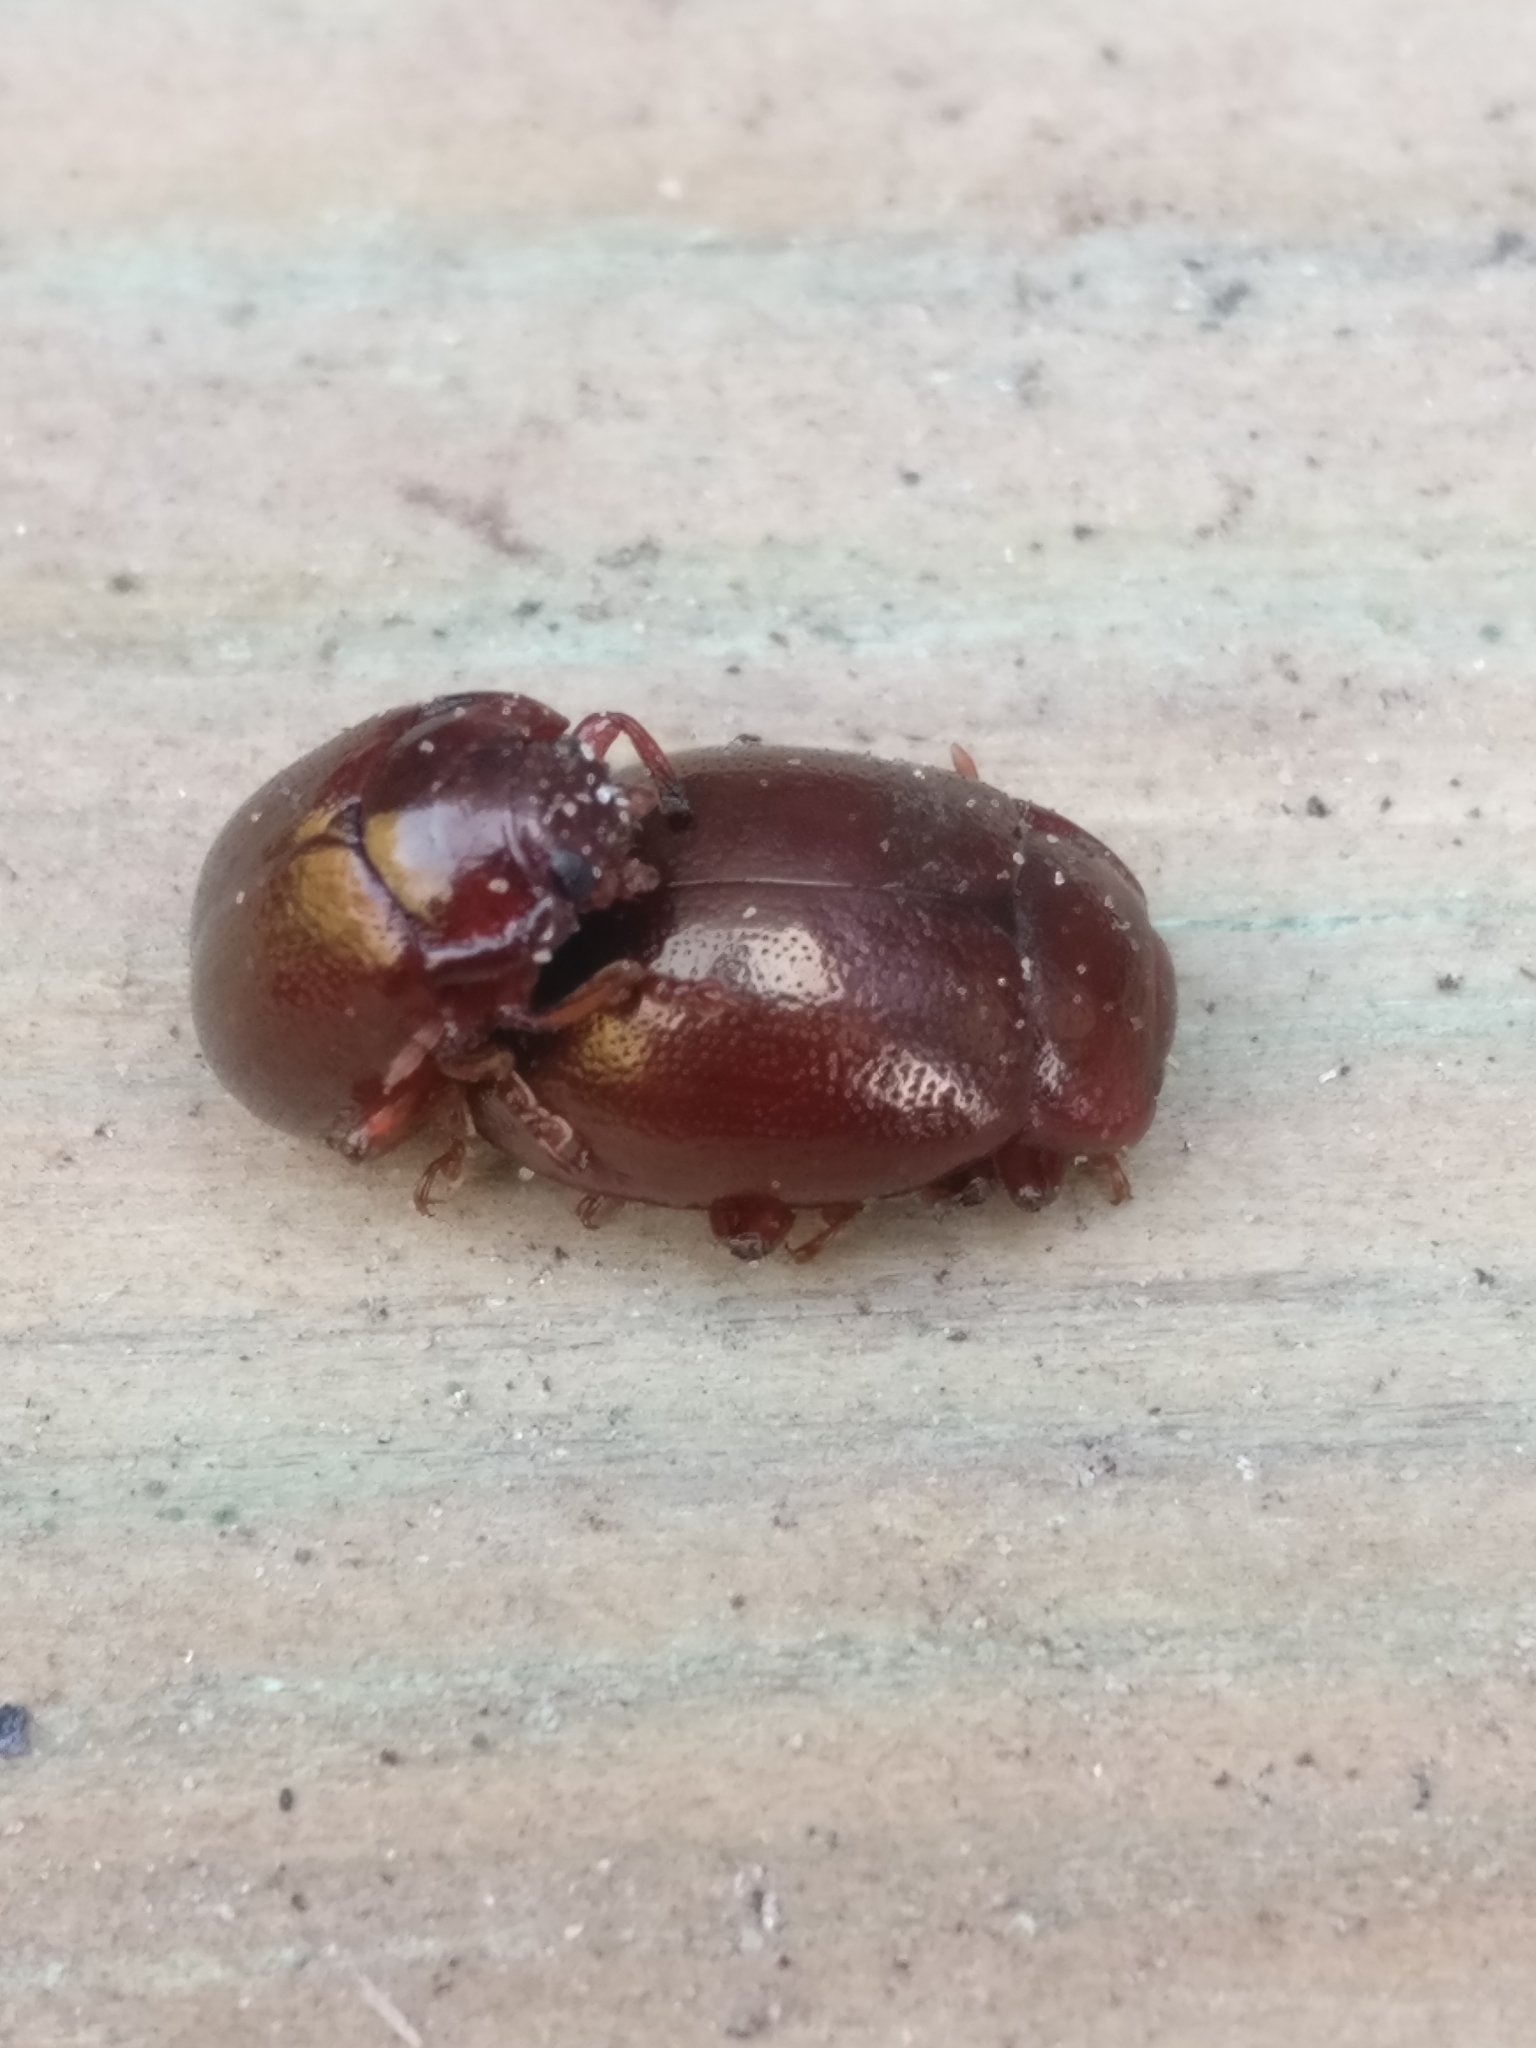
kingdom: Animalia
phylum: Arthropoda
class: Insecta
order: Coleoptera
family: Chrysomelidae
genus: Chrysolina
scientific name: Chrysolina staphylaea
